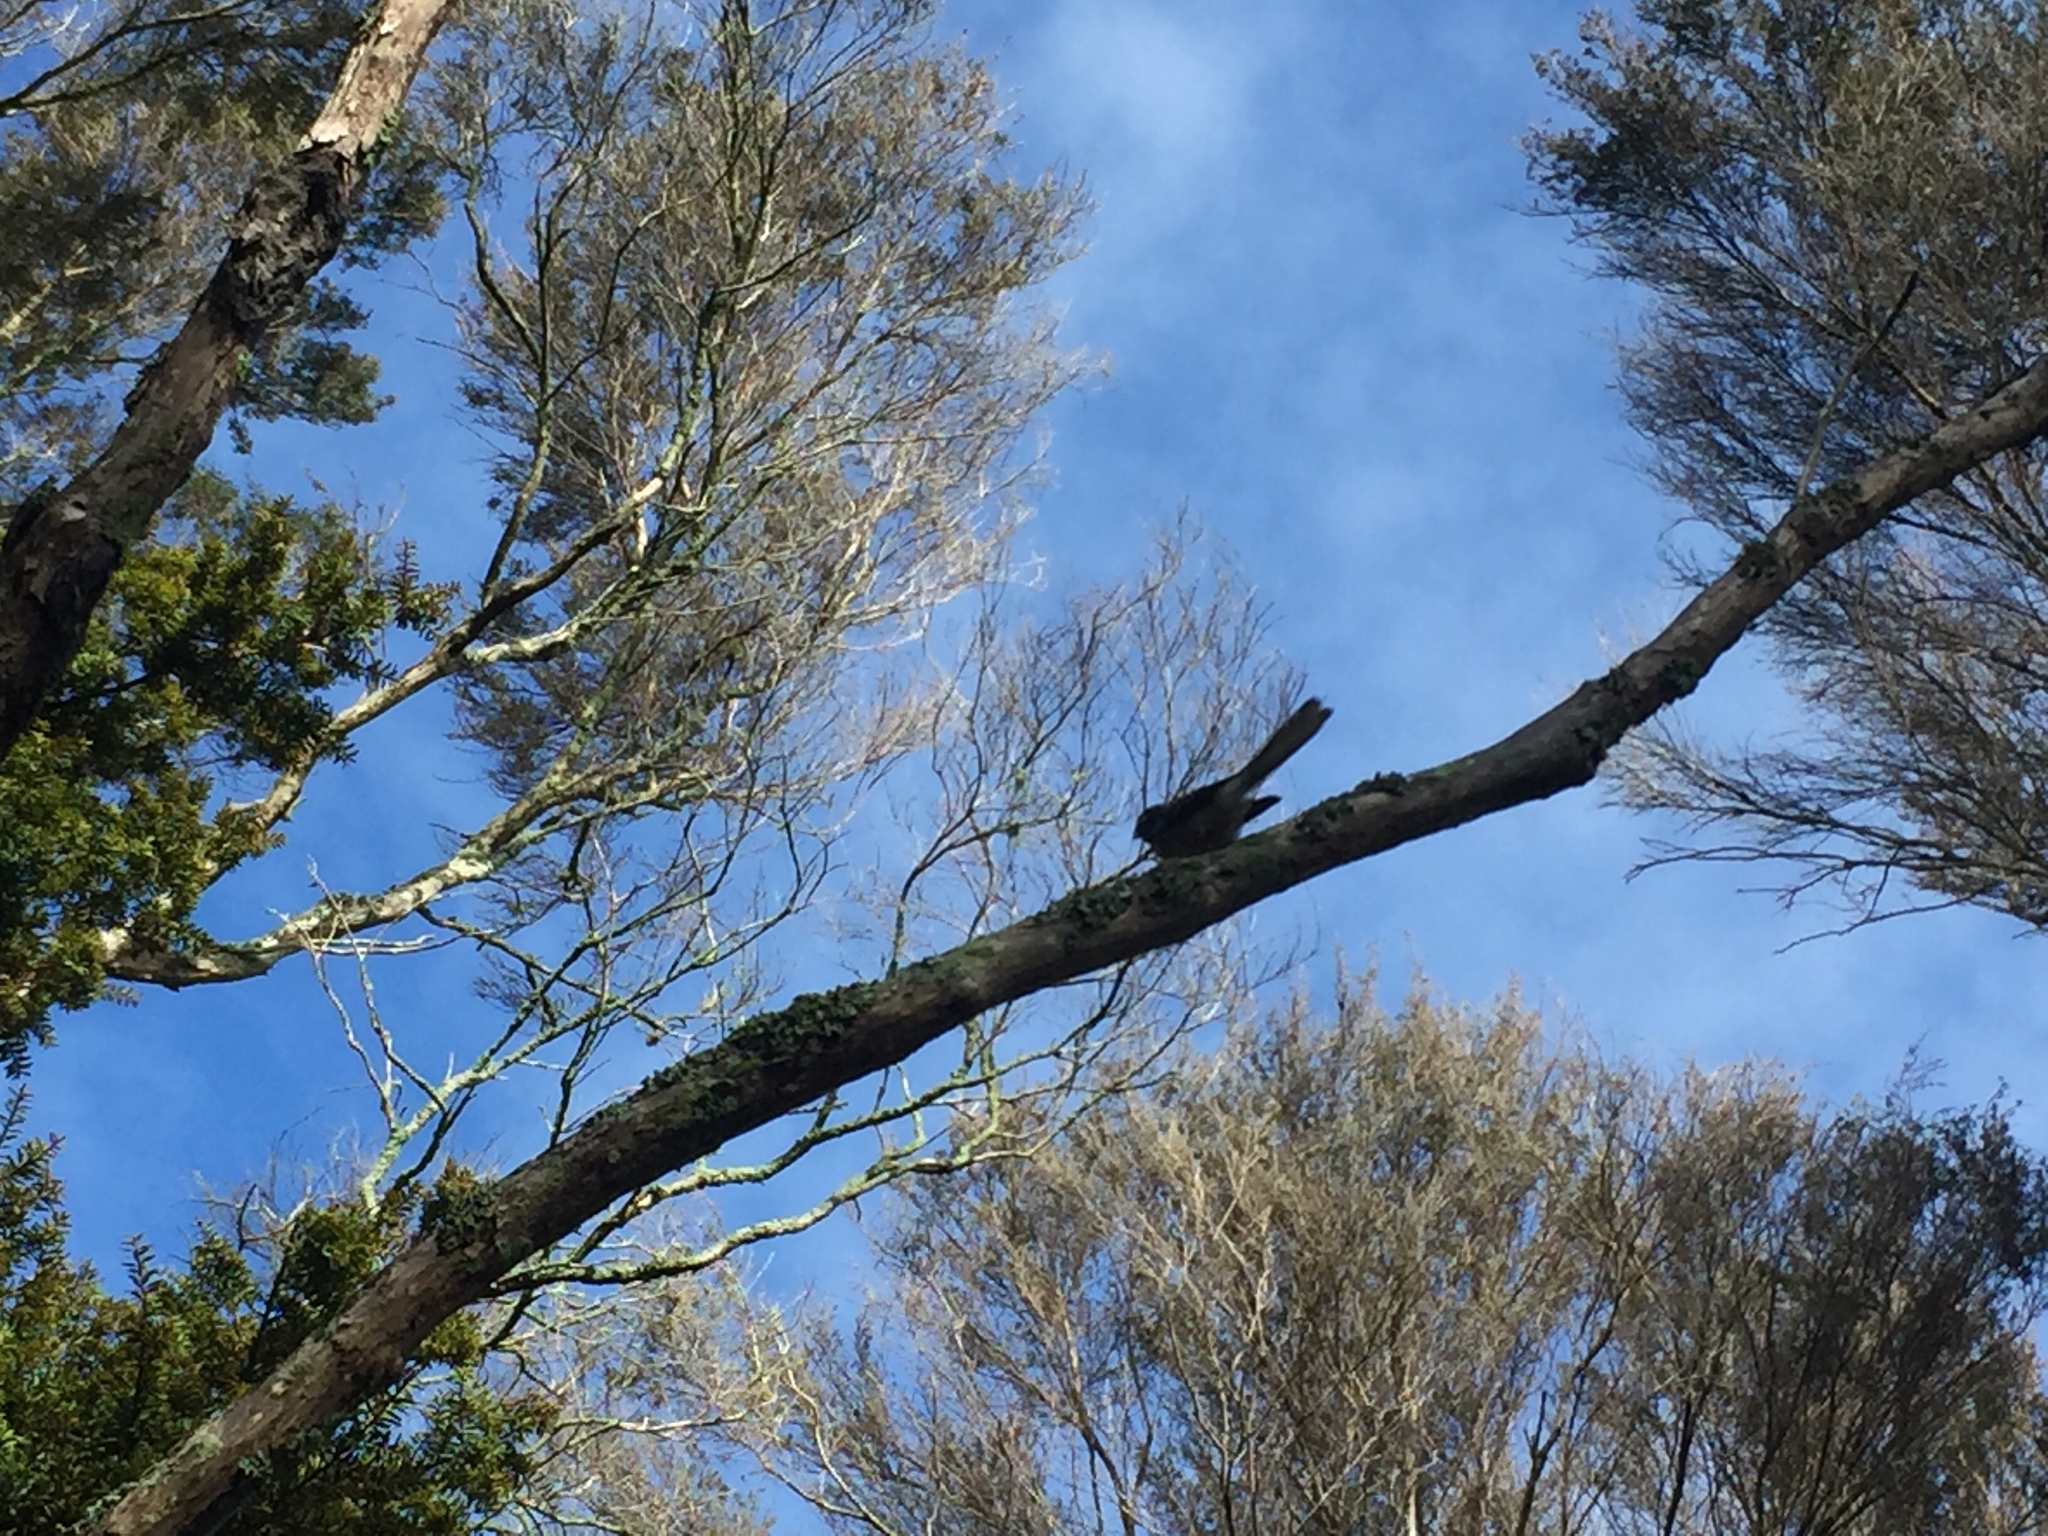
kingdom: Animalia
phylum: Chordata
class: Aves
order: Passeriformes
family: Rhipiduridae
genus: Rhipidura
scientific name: Rhipidura fuliginosa
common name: New zealand fantail
